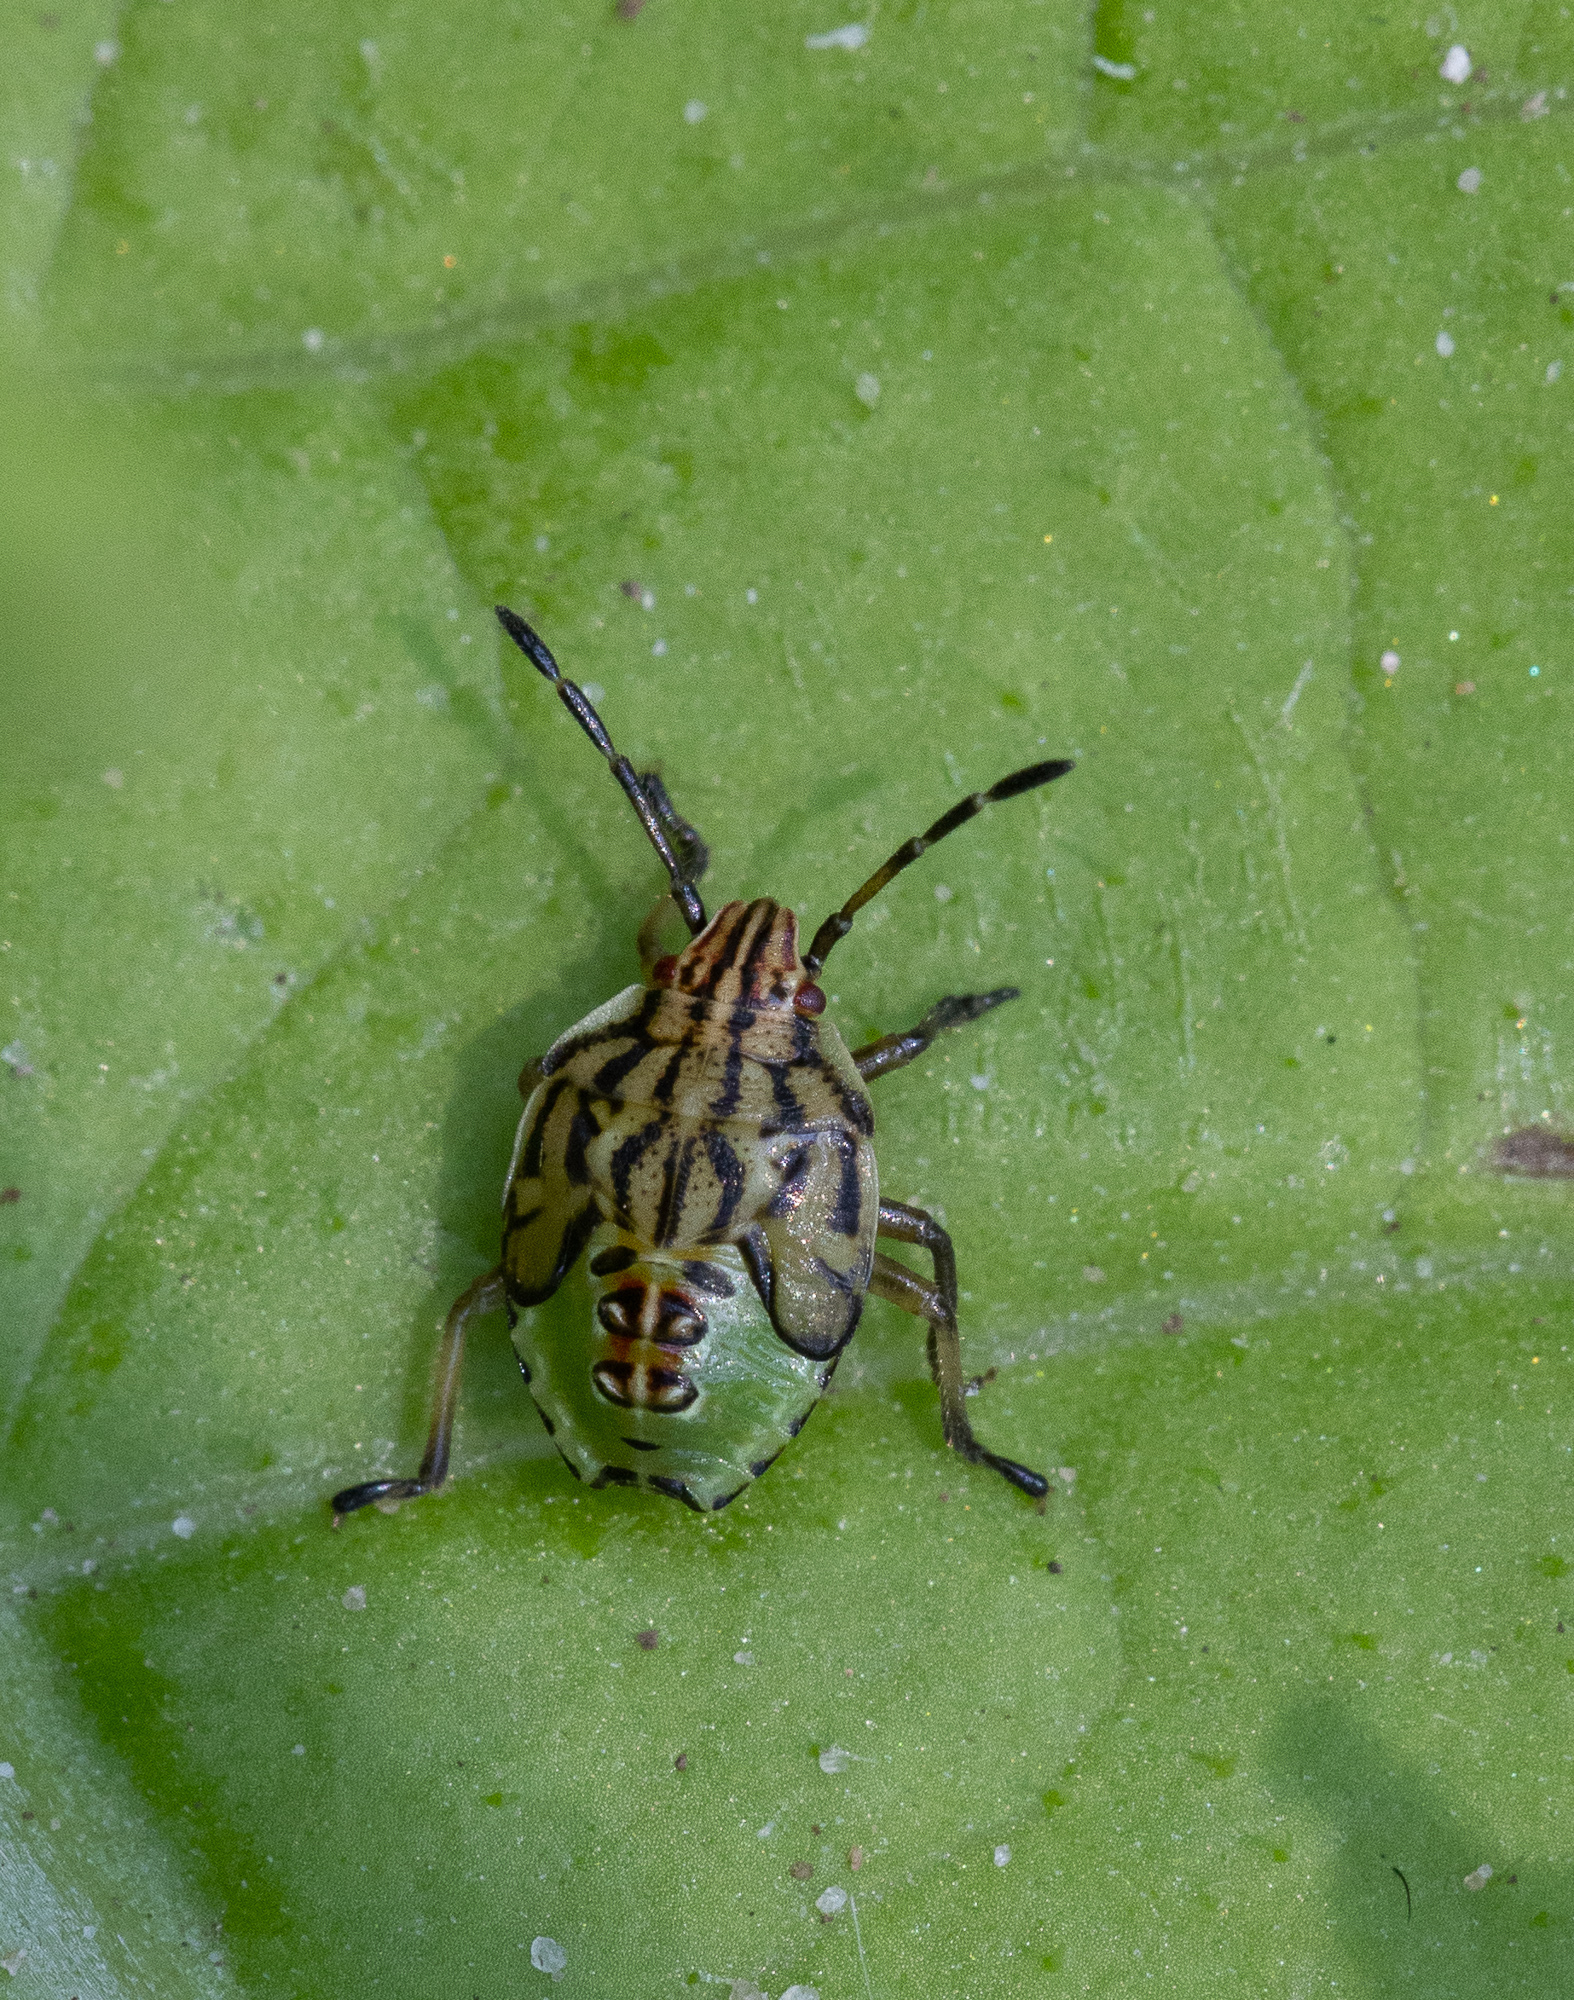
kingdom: Animalia
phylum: Arthropoda
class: Insecta
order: Hemiptera
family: Acanthosomatidae
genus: Elasmucha
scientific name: Elasmucha grisea
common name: Parent bug
